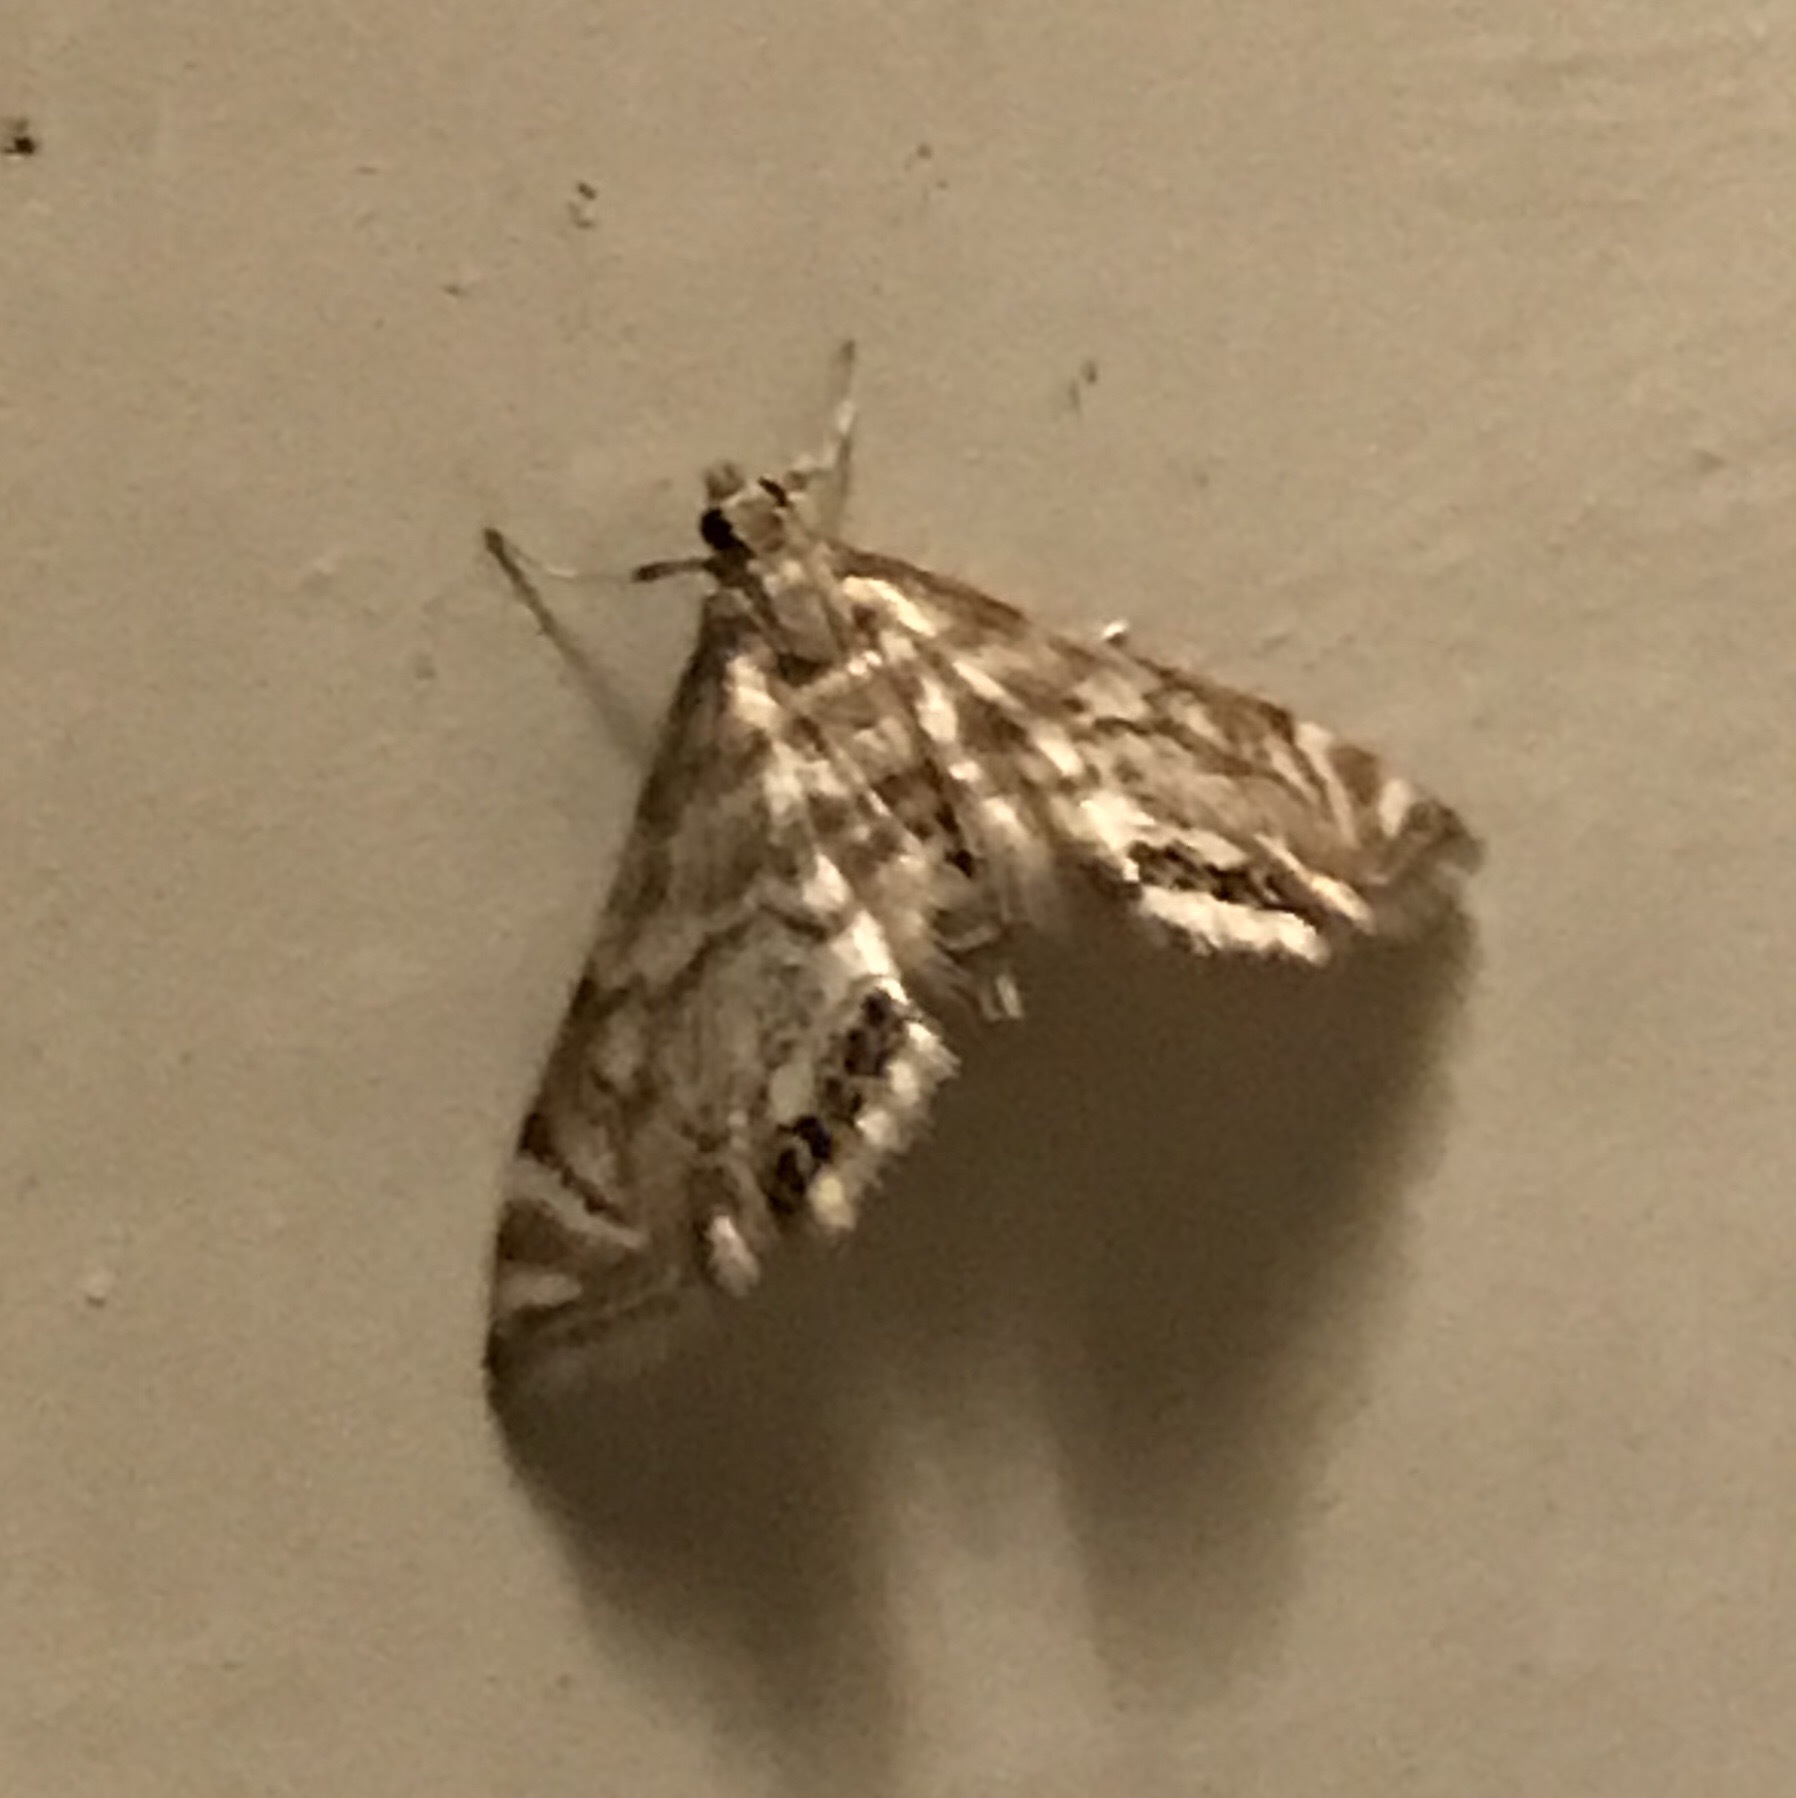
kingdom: Animalia
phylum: Arthropoda
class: Insecta
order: Lepidoptera
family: Crambidae
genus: Petrophila
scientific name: Petrophila canadensis
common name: Canadian petrophila
